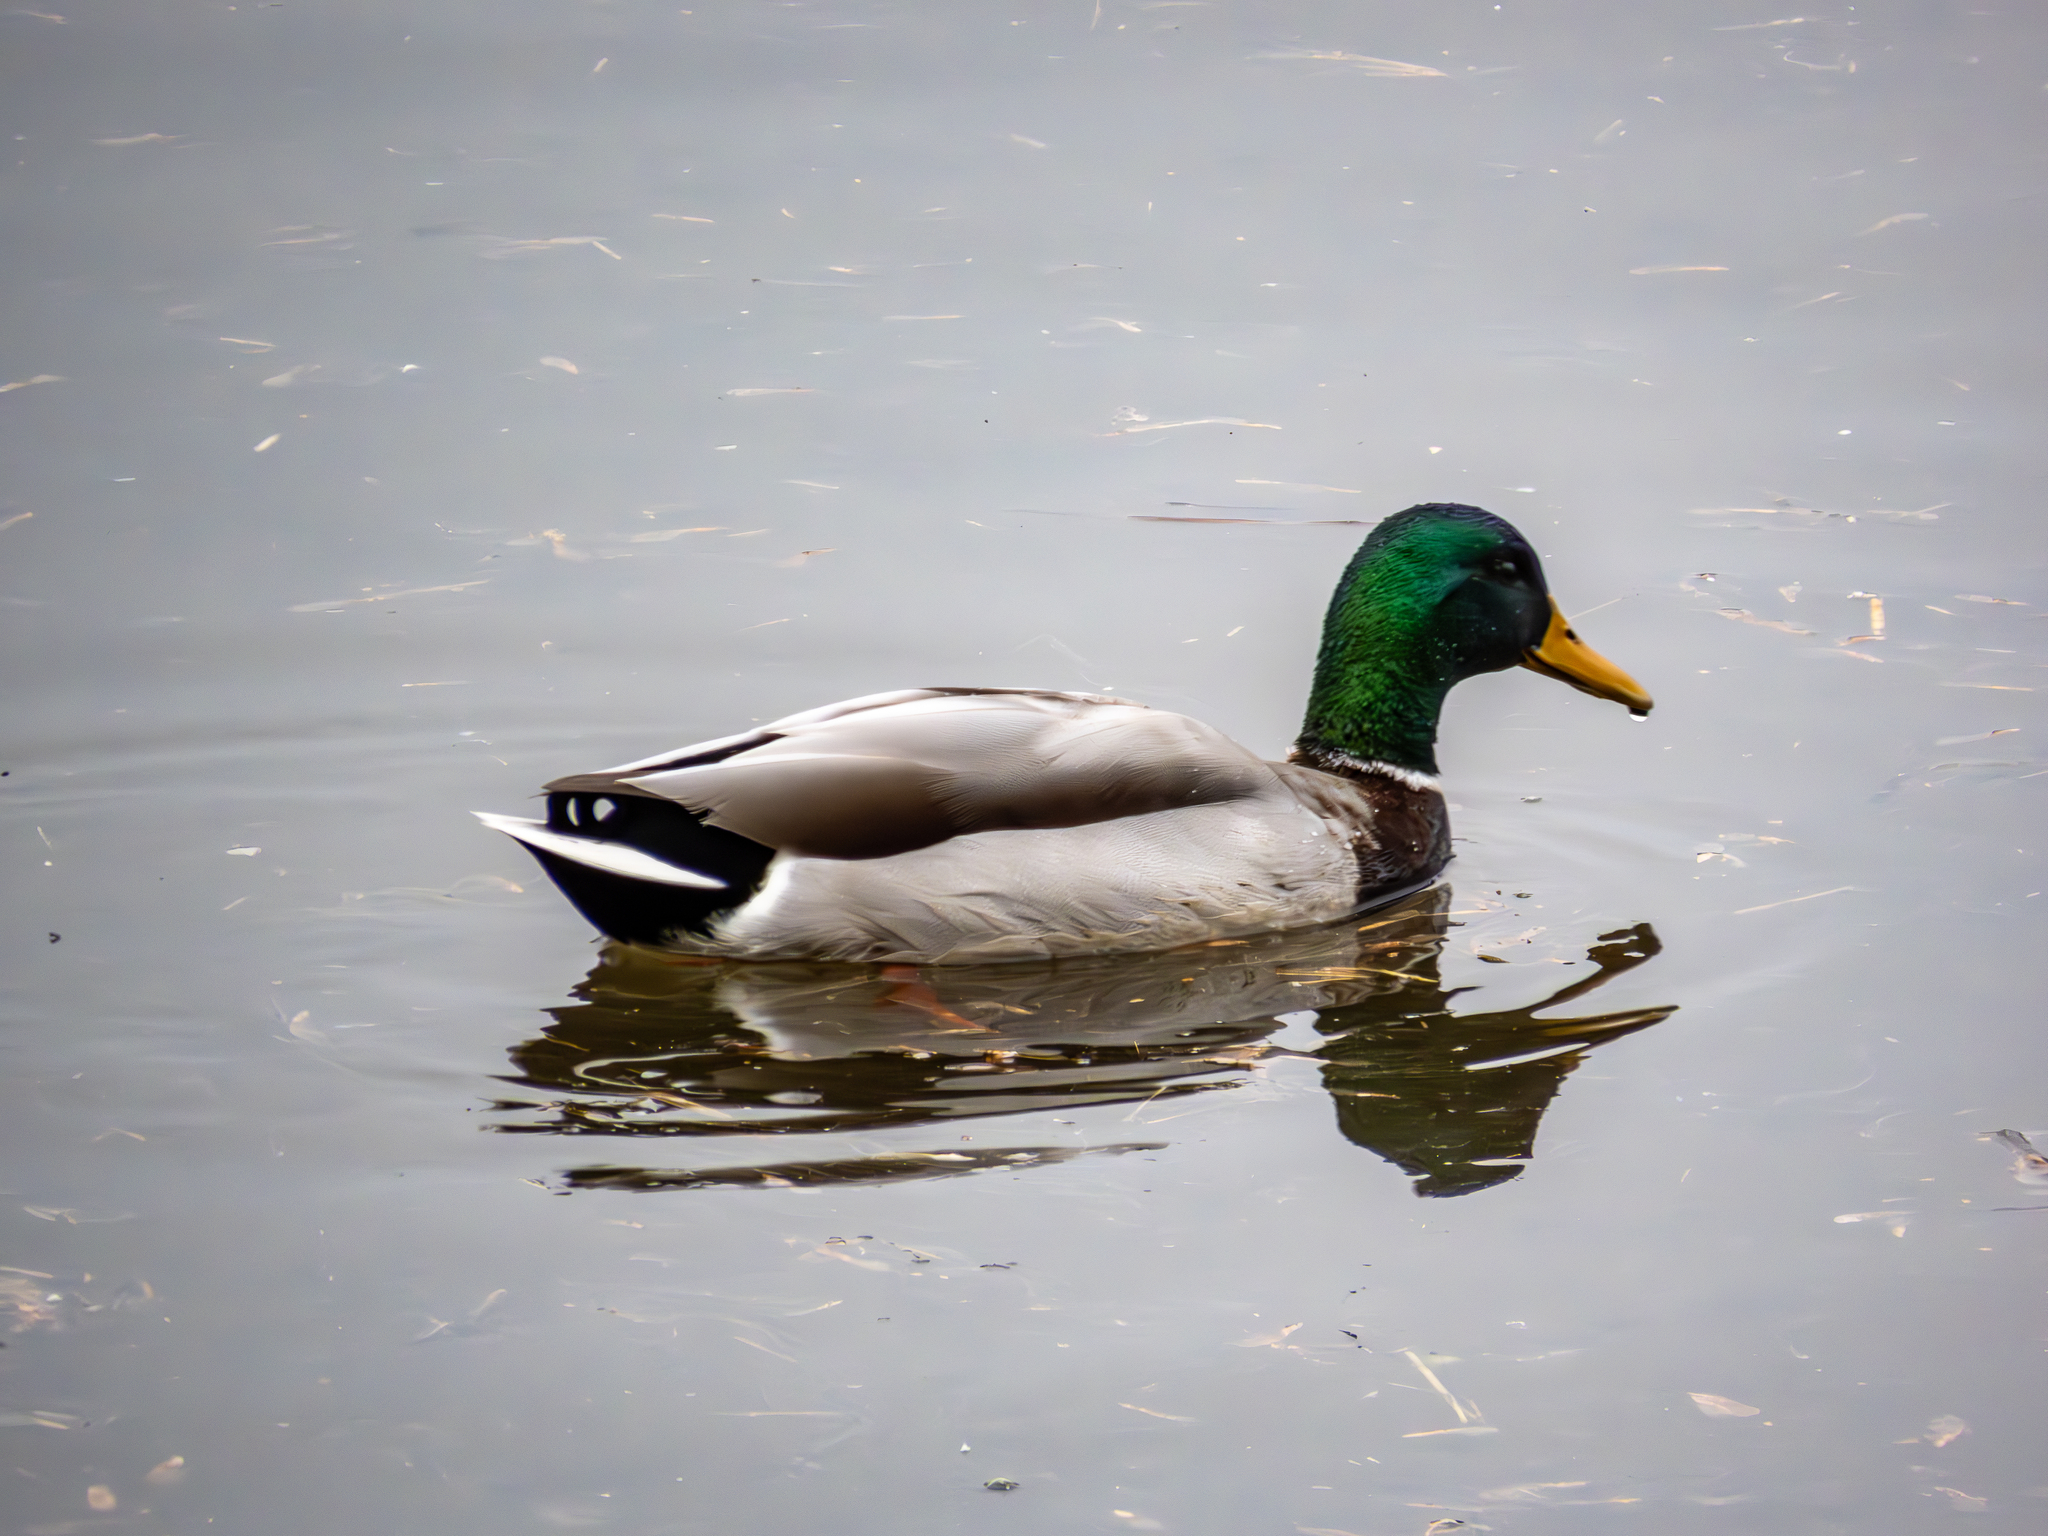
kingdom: Animalia
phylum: Chordata
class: Aves
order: Anseriformes
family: Anatidae
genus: Anas
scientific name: Anas platyrhynchos
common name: Mallard
